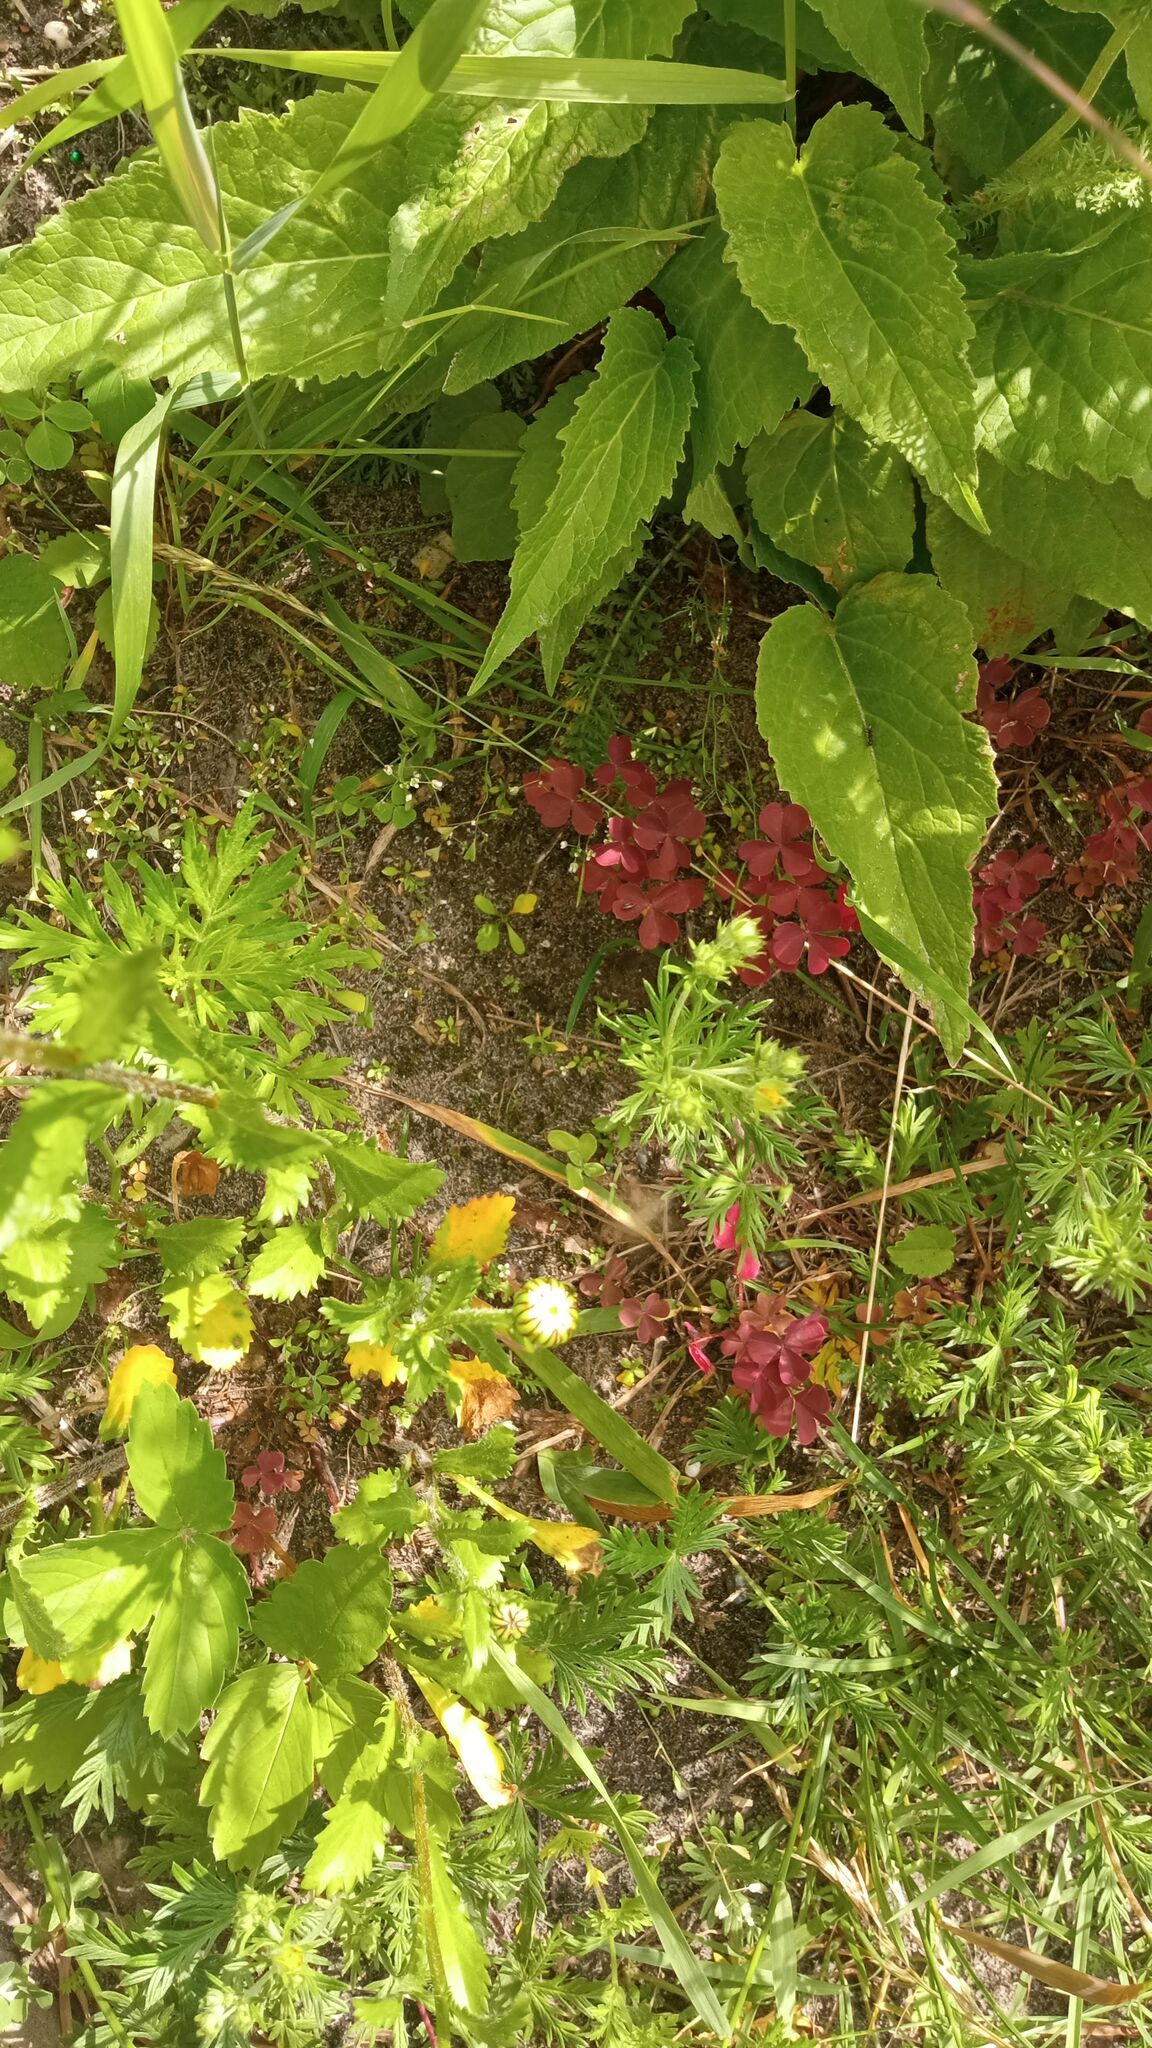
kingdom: Plantae
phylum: Tracheophyta
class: Magnoliopsida
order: Oxalidales
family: Oxalidaceae
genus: Oxalis
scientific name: Oxalis stricta
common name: Upright yellow-sorrel
